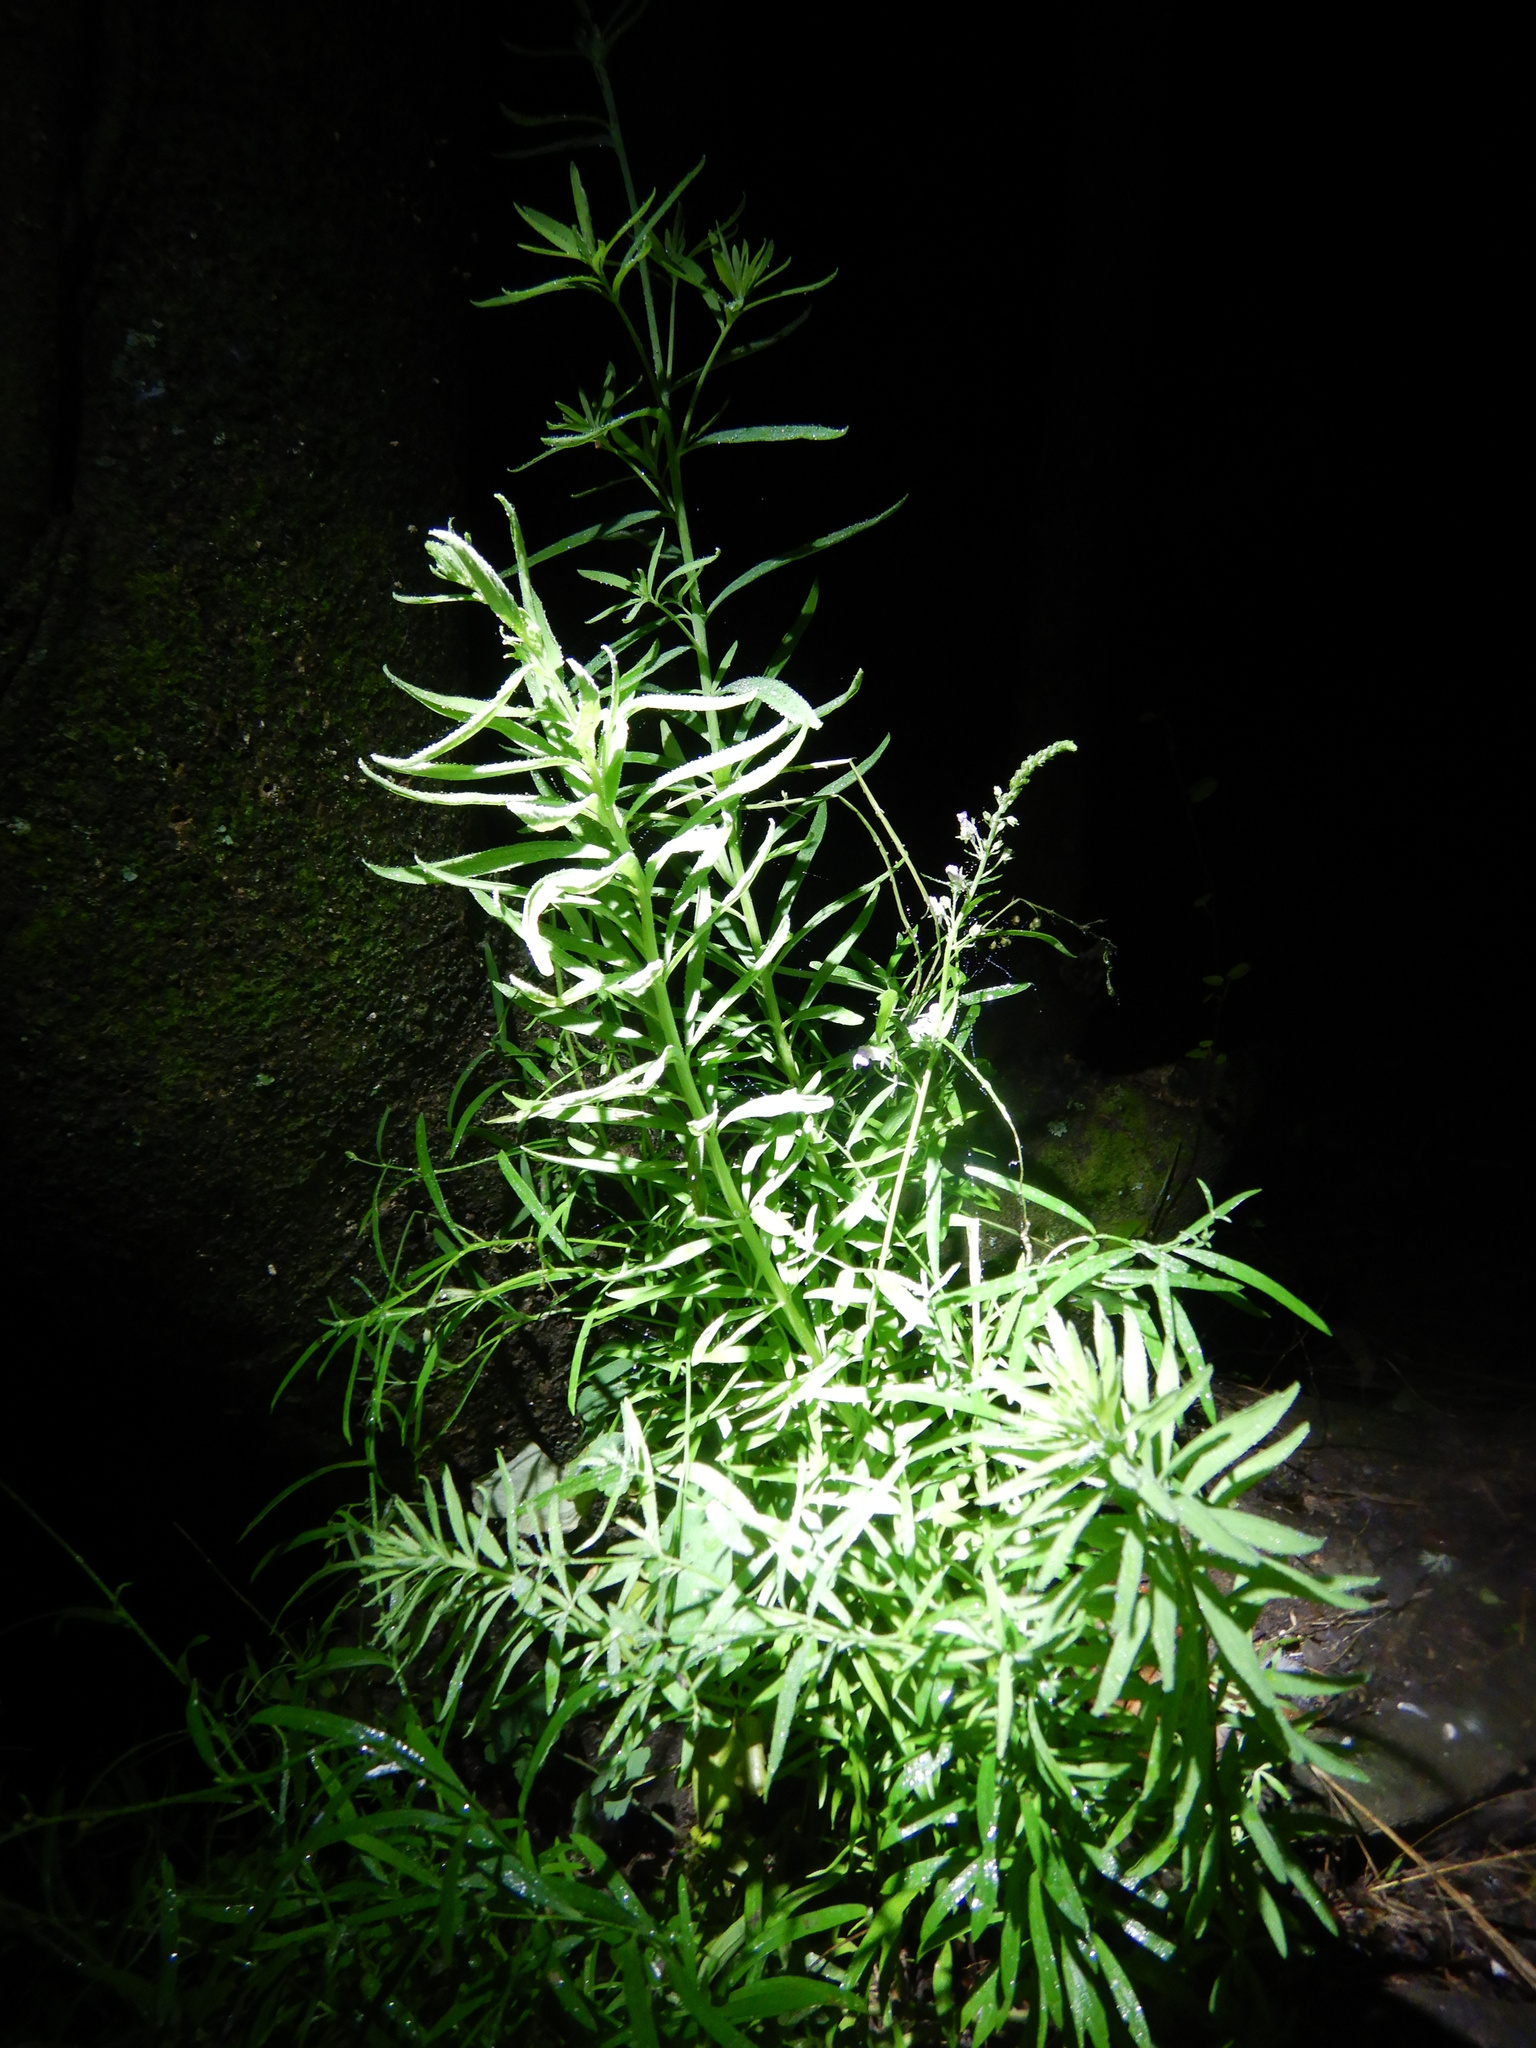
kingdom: Plantae
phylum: Tracheophyta
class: Magnoliopsida
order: Lamiales
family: Plantaginaceae
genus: Linaria
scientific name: Linaria purpurea
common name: Purple toadflax
